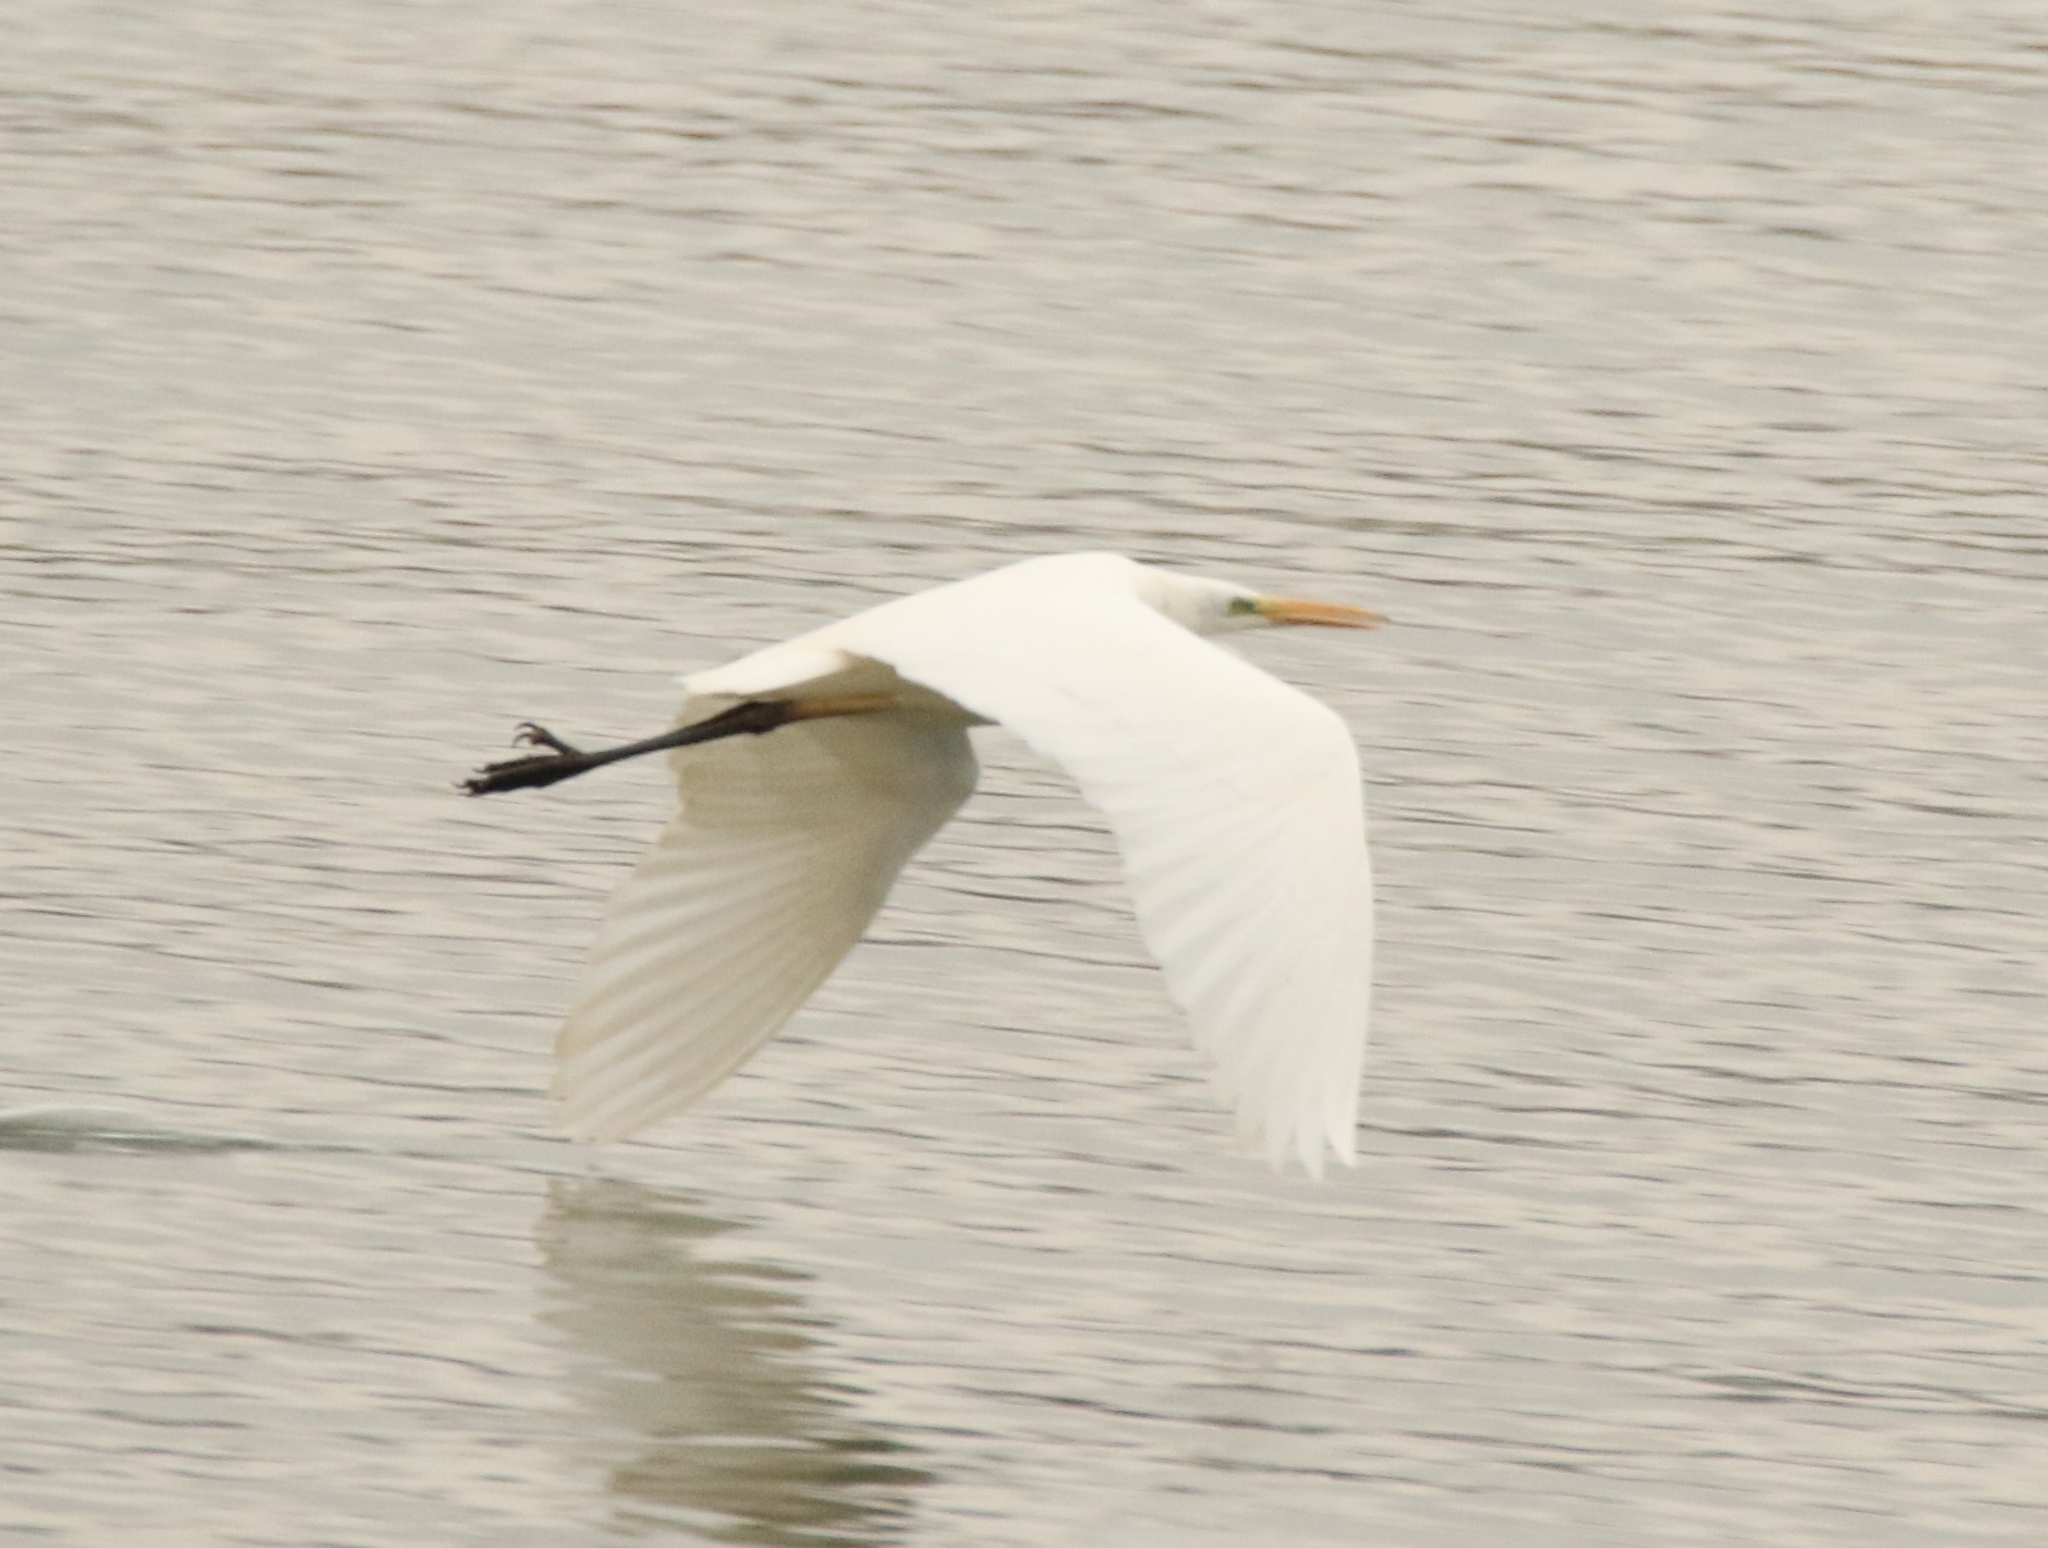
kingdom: Animalia
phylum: Chordata
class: Aves
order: Pelecaniformes
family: Ardeidae
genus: Ardea
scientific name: Ardea alba
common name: Great egret
